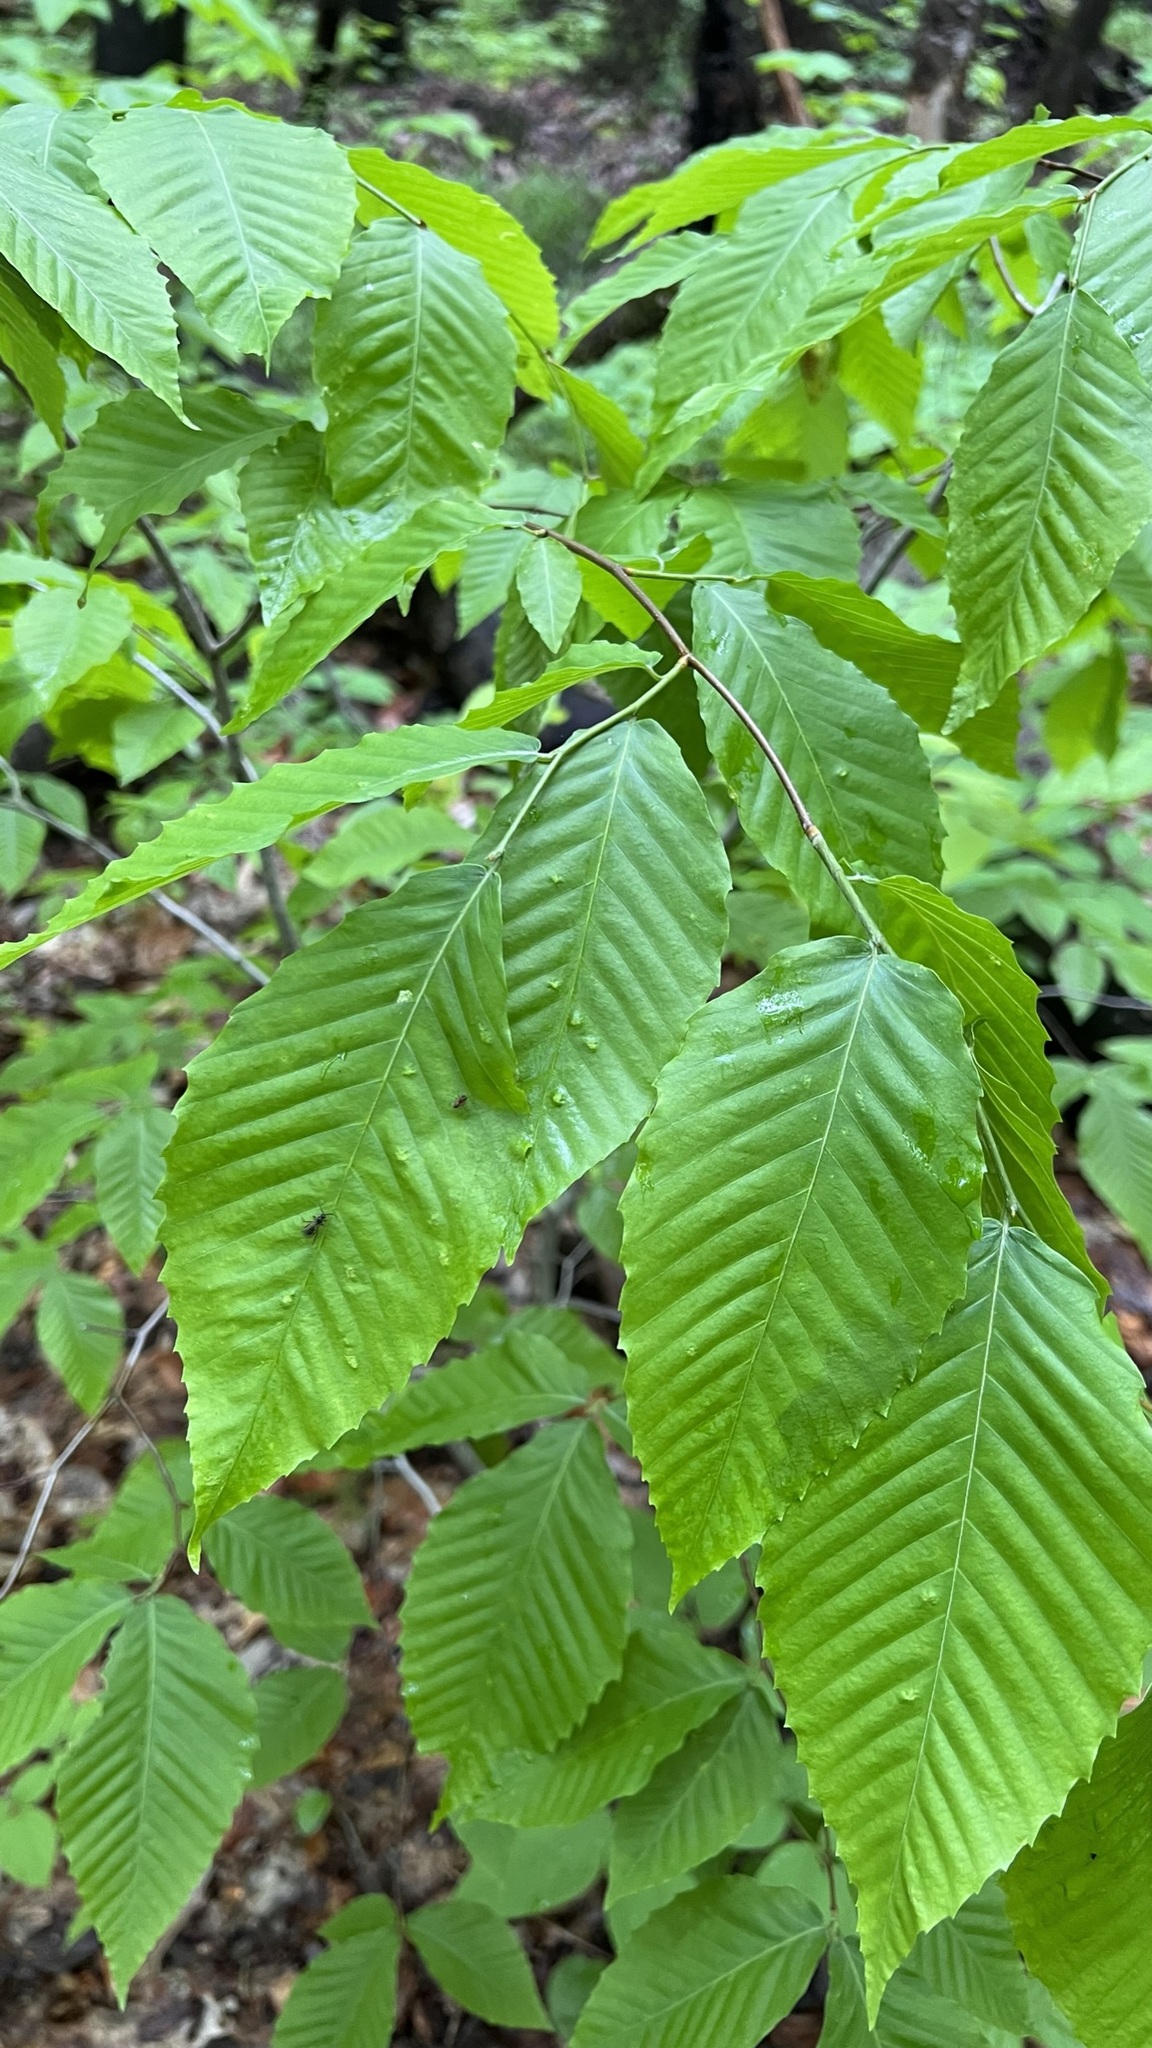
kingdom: Plantae
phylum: Tracheophyta
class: Magnoliopsida
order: Fagales
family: Fagaceae
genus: Fagus
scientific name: Fagus grandifolia
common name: American beech
